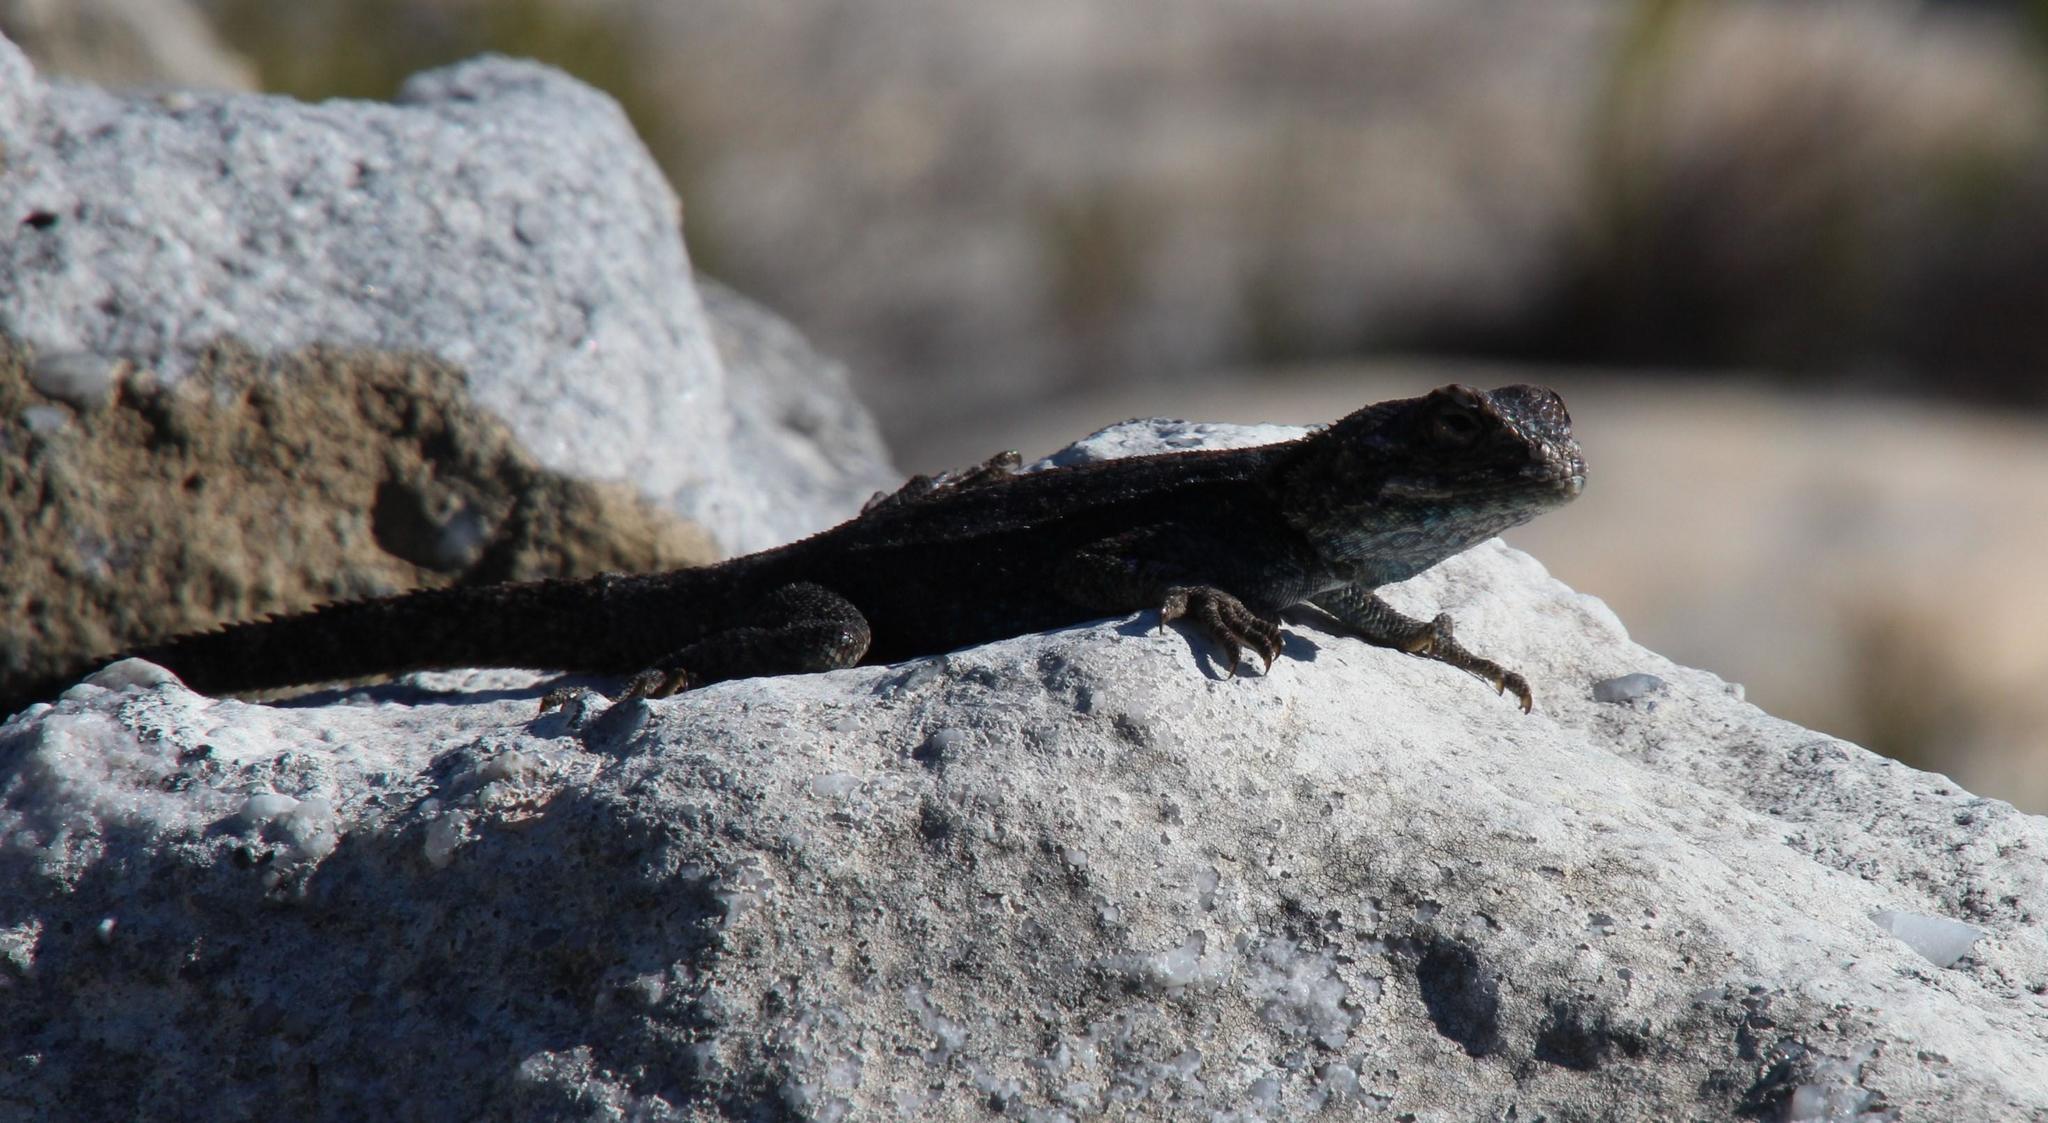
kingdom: Animalia
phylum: Chordata
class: Squamata
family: Agamidae
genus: Agama
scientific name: Agama atra
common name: Southern african rock agama
